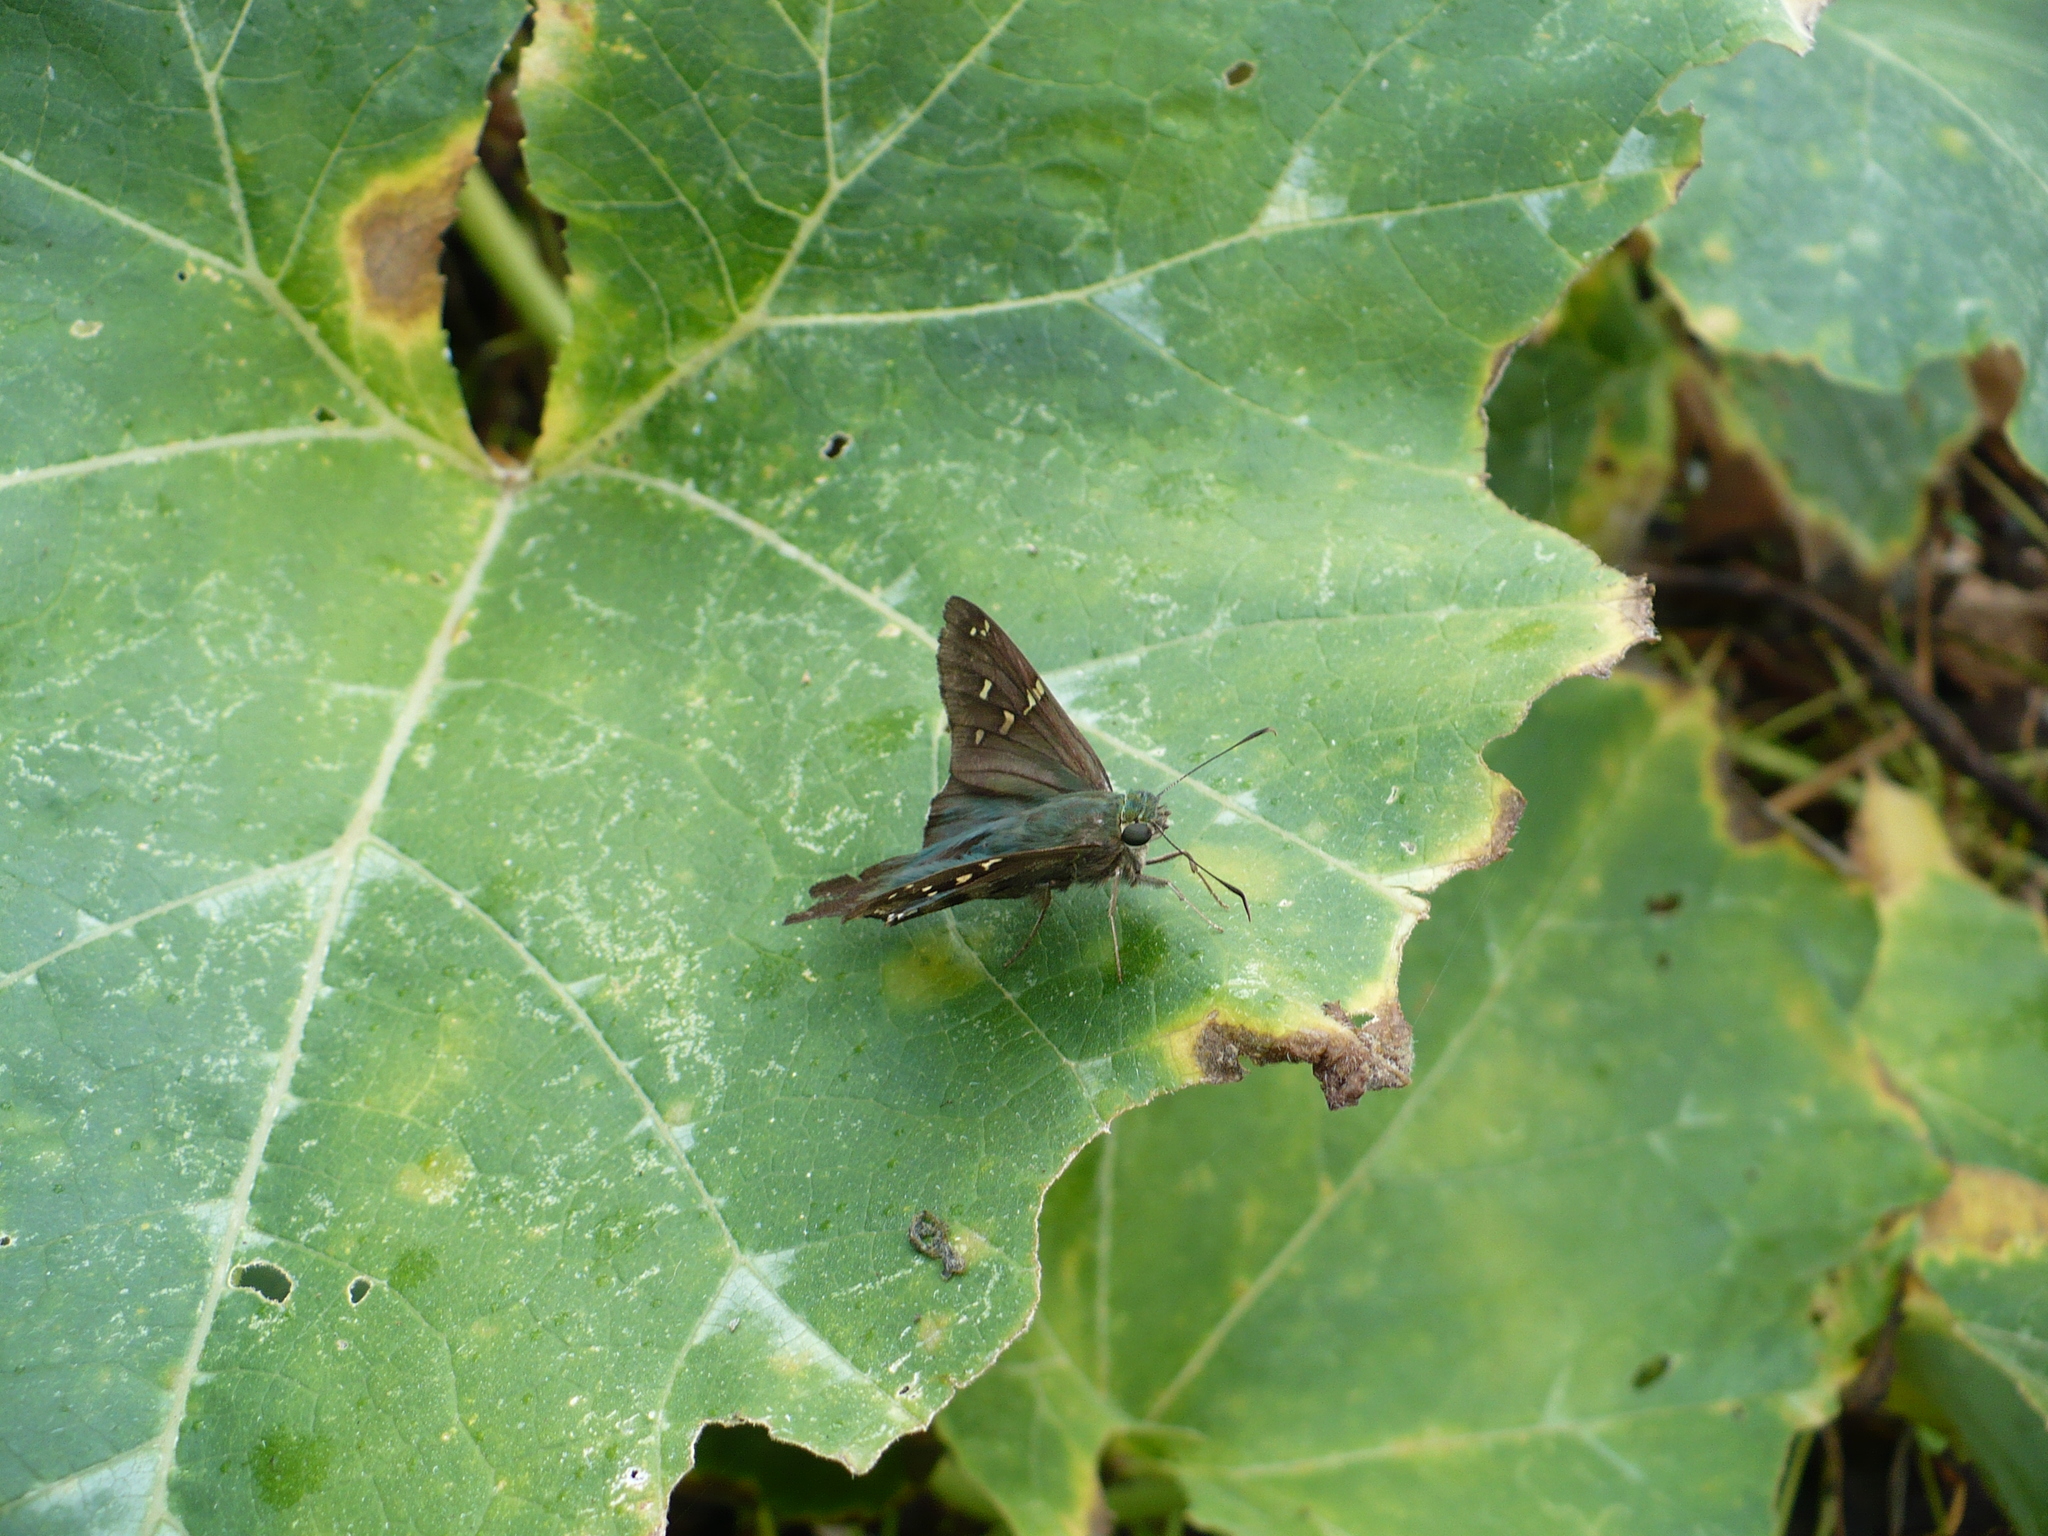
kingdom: Animalia
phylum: Arthropoda
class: Insecta
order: Lepidoptera
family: Hesperiidae
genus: Urbanus
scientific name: Urbanus proteus
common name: Long-tailed skipper
